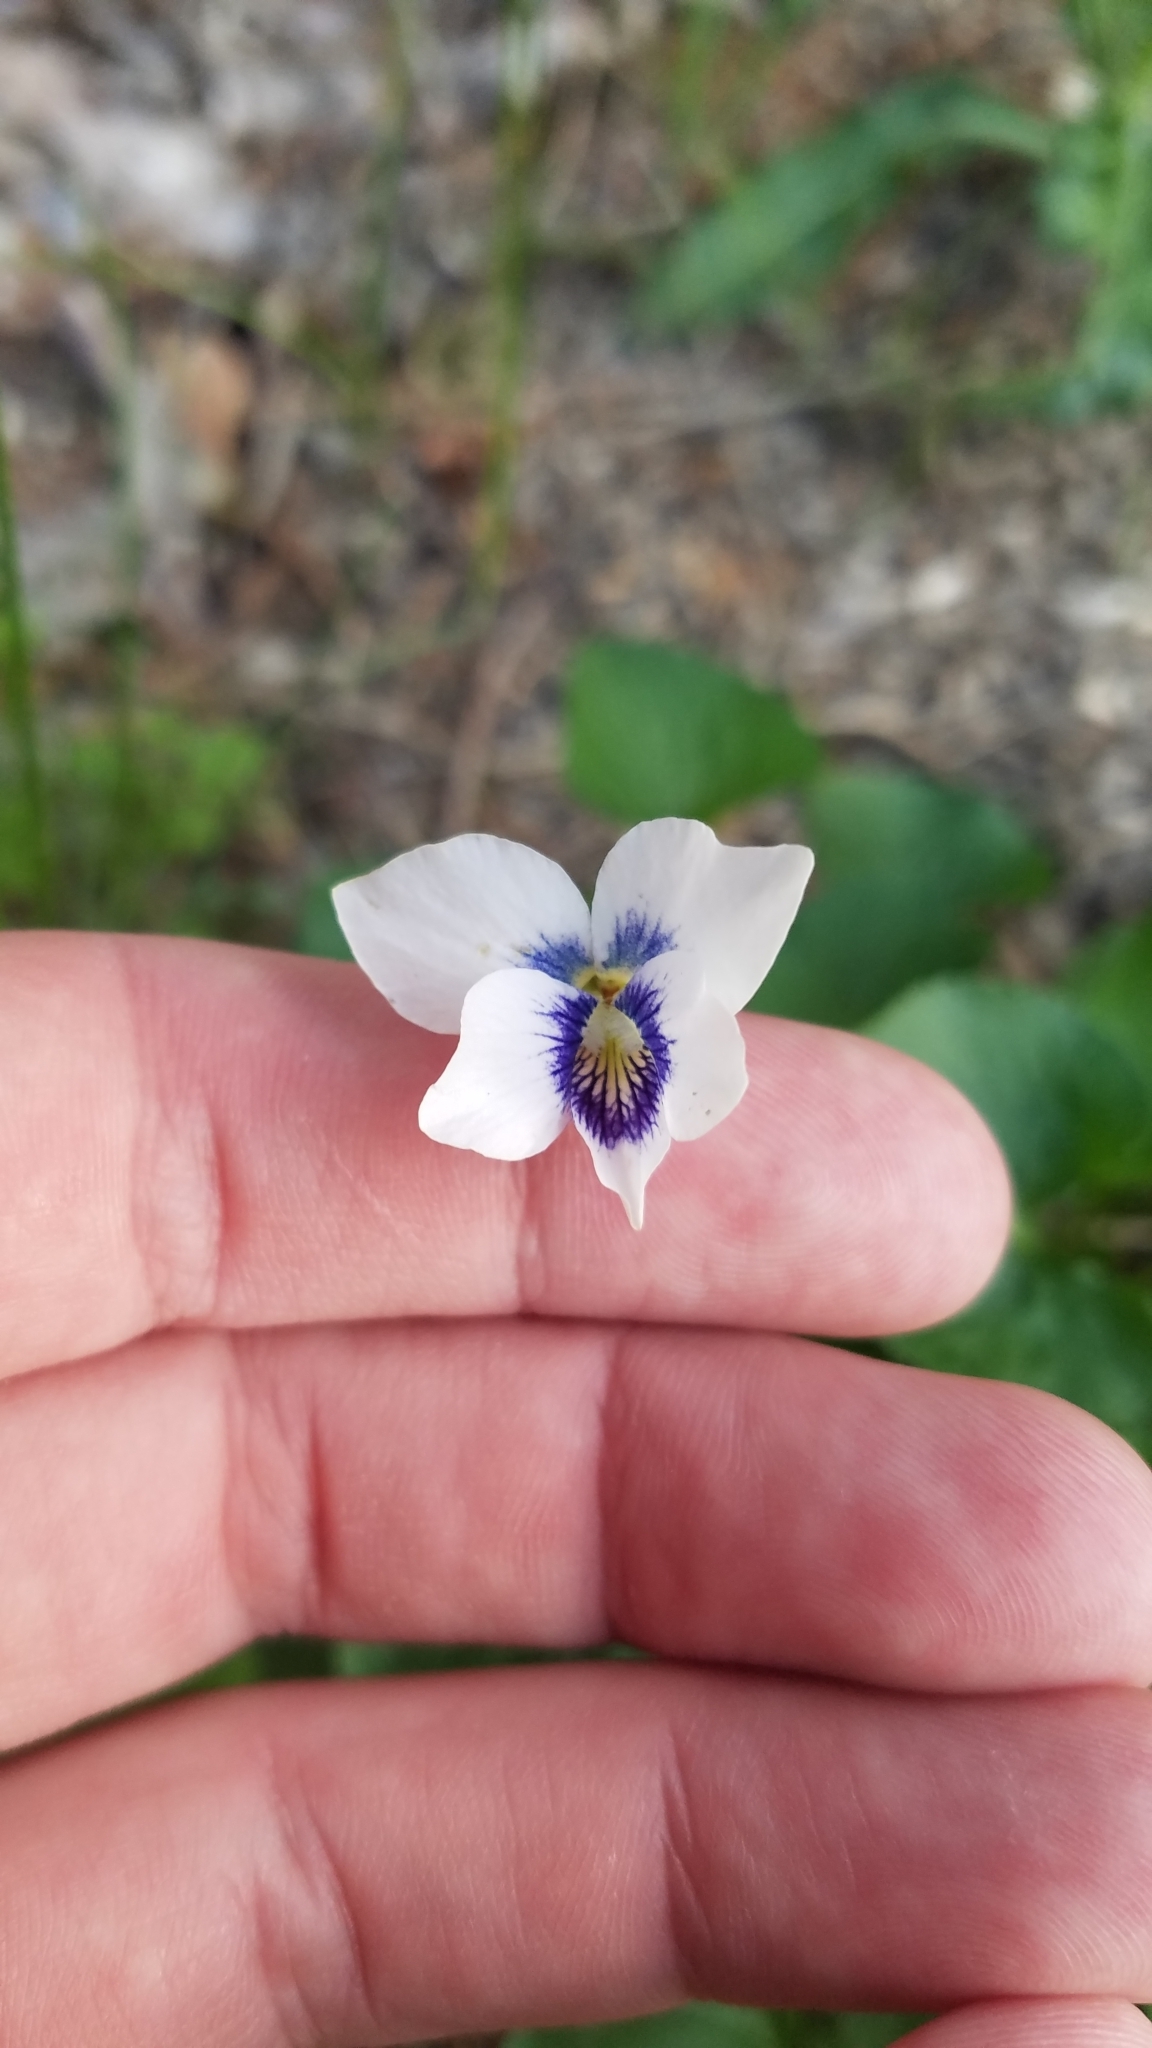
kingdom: Plantae
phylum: Tracheophyta
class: Magnoliopsida
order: Malpighiales
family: Violaceae
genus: Viola
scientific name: Viola sororia
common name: Dooryard violet
